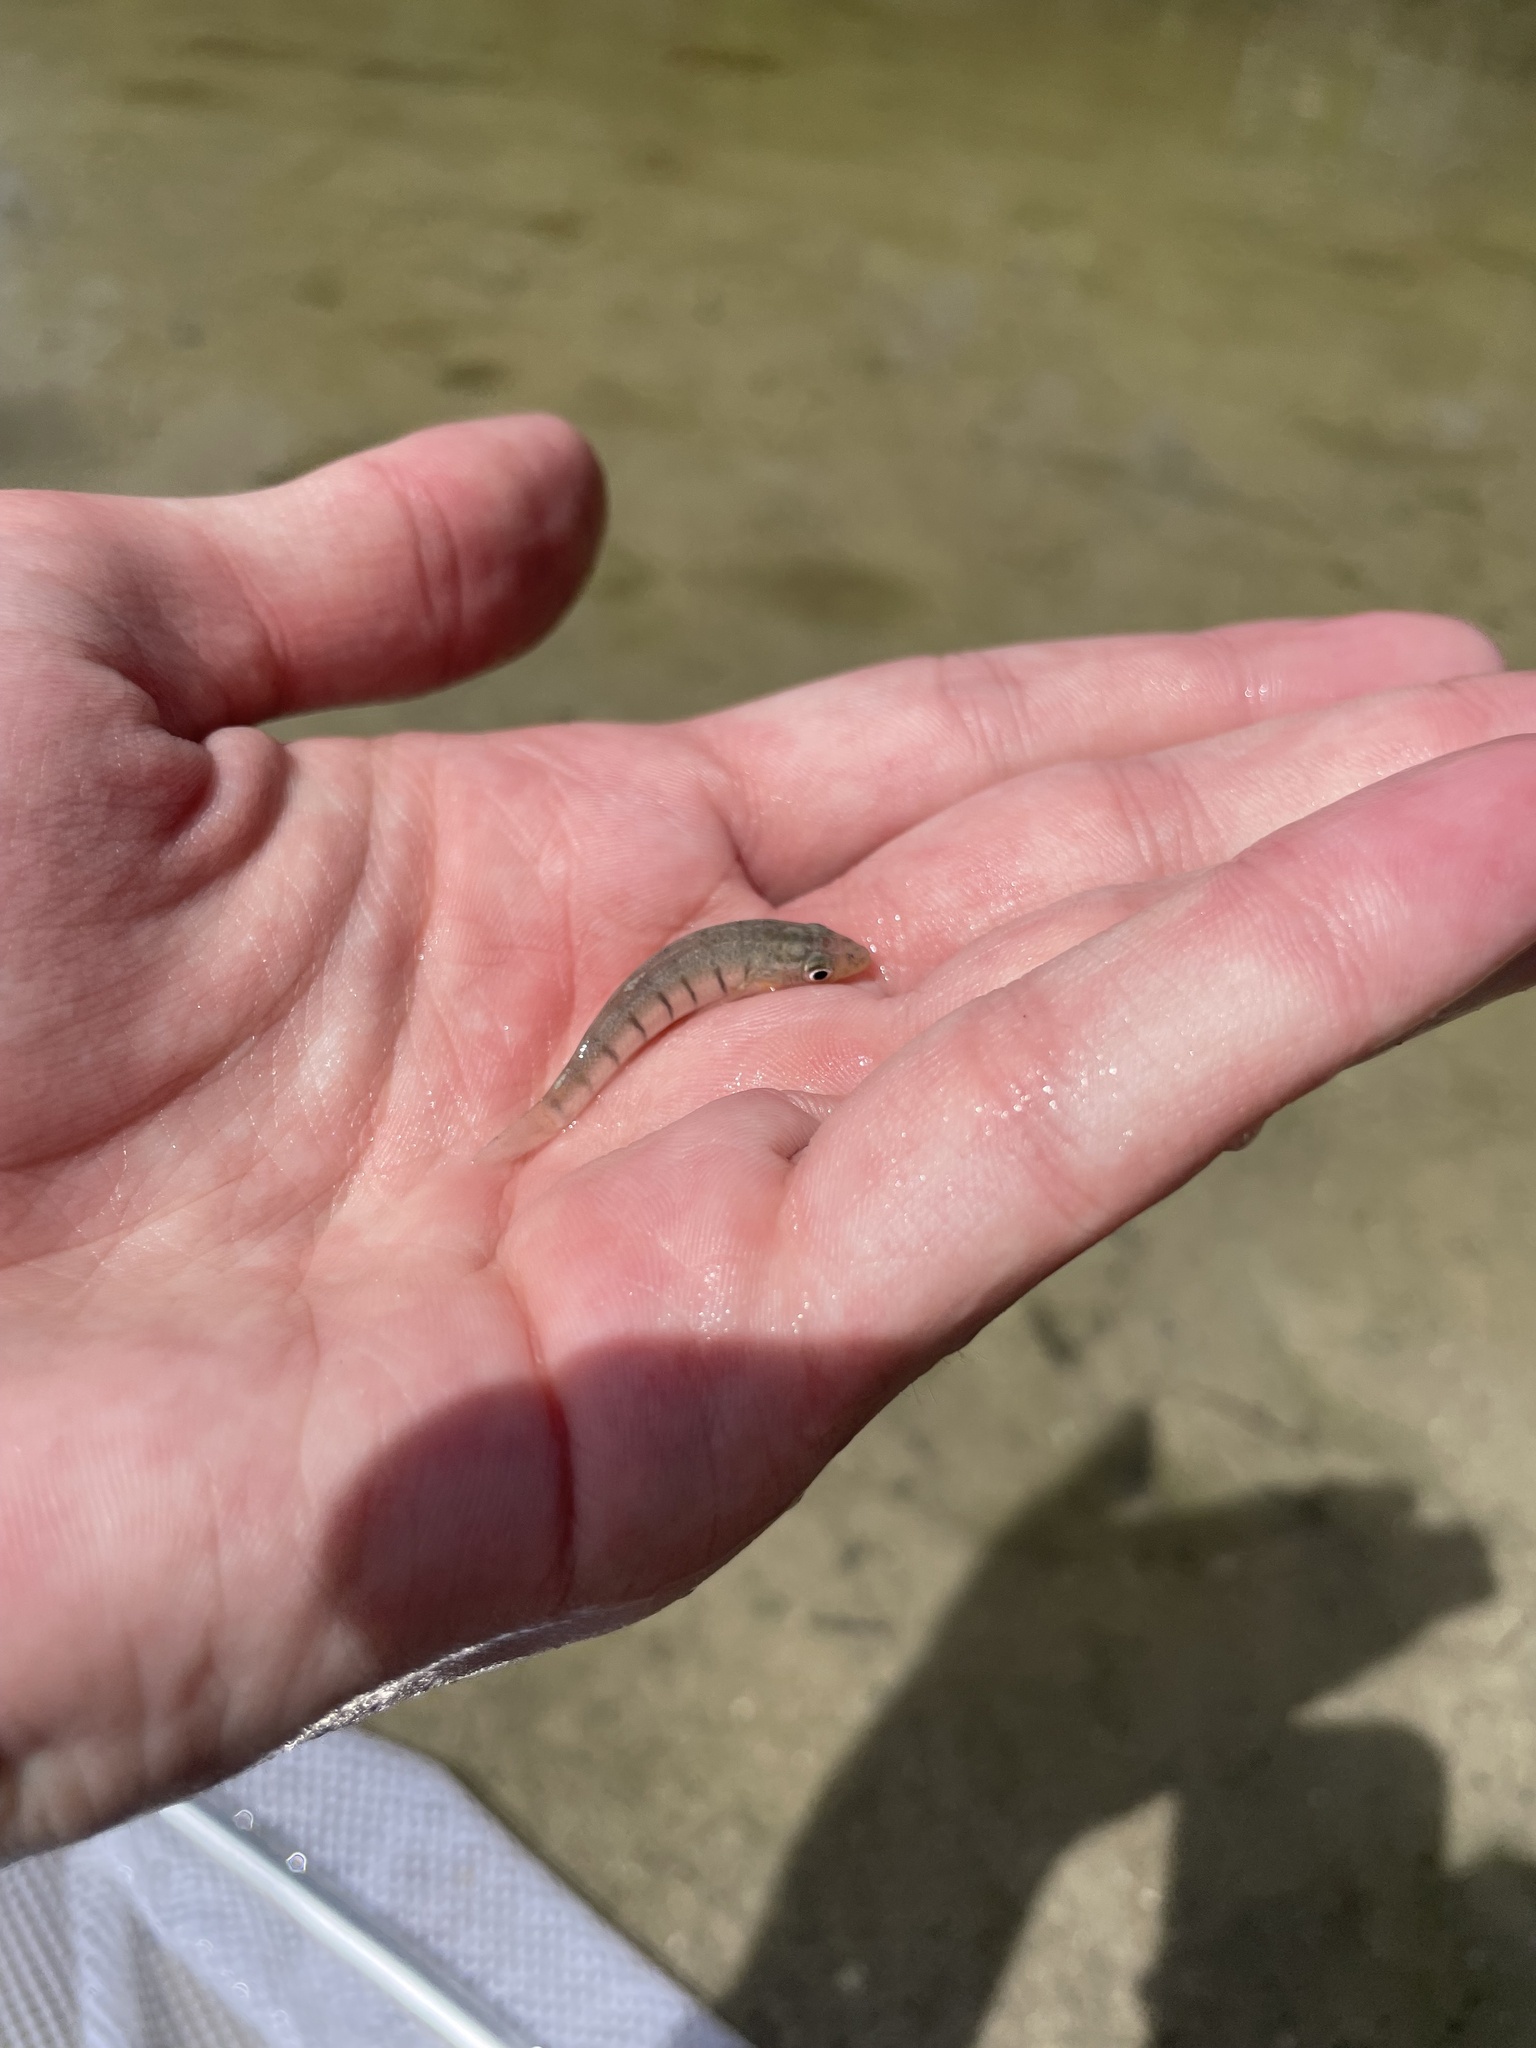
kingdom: Animalia
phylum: Chordata
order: Cyprinodontiformes
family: Fundulidae
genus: Fundulus
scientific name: Fundulus similis
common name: Longnose killifish
